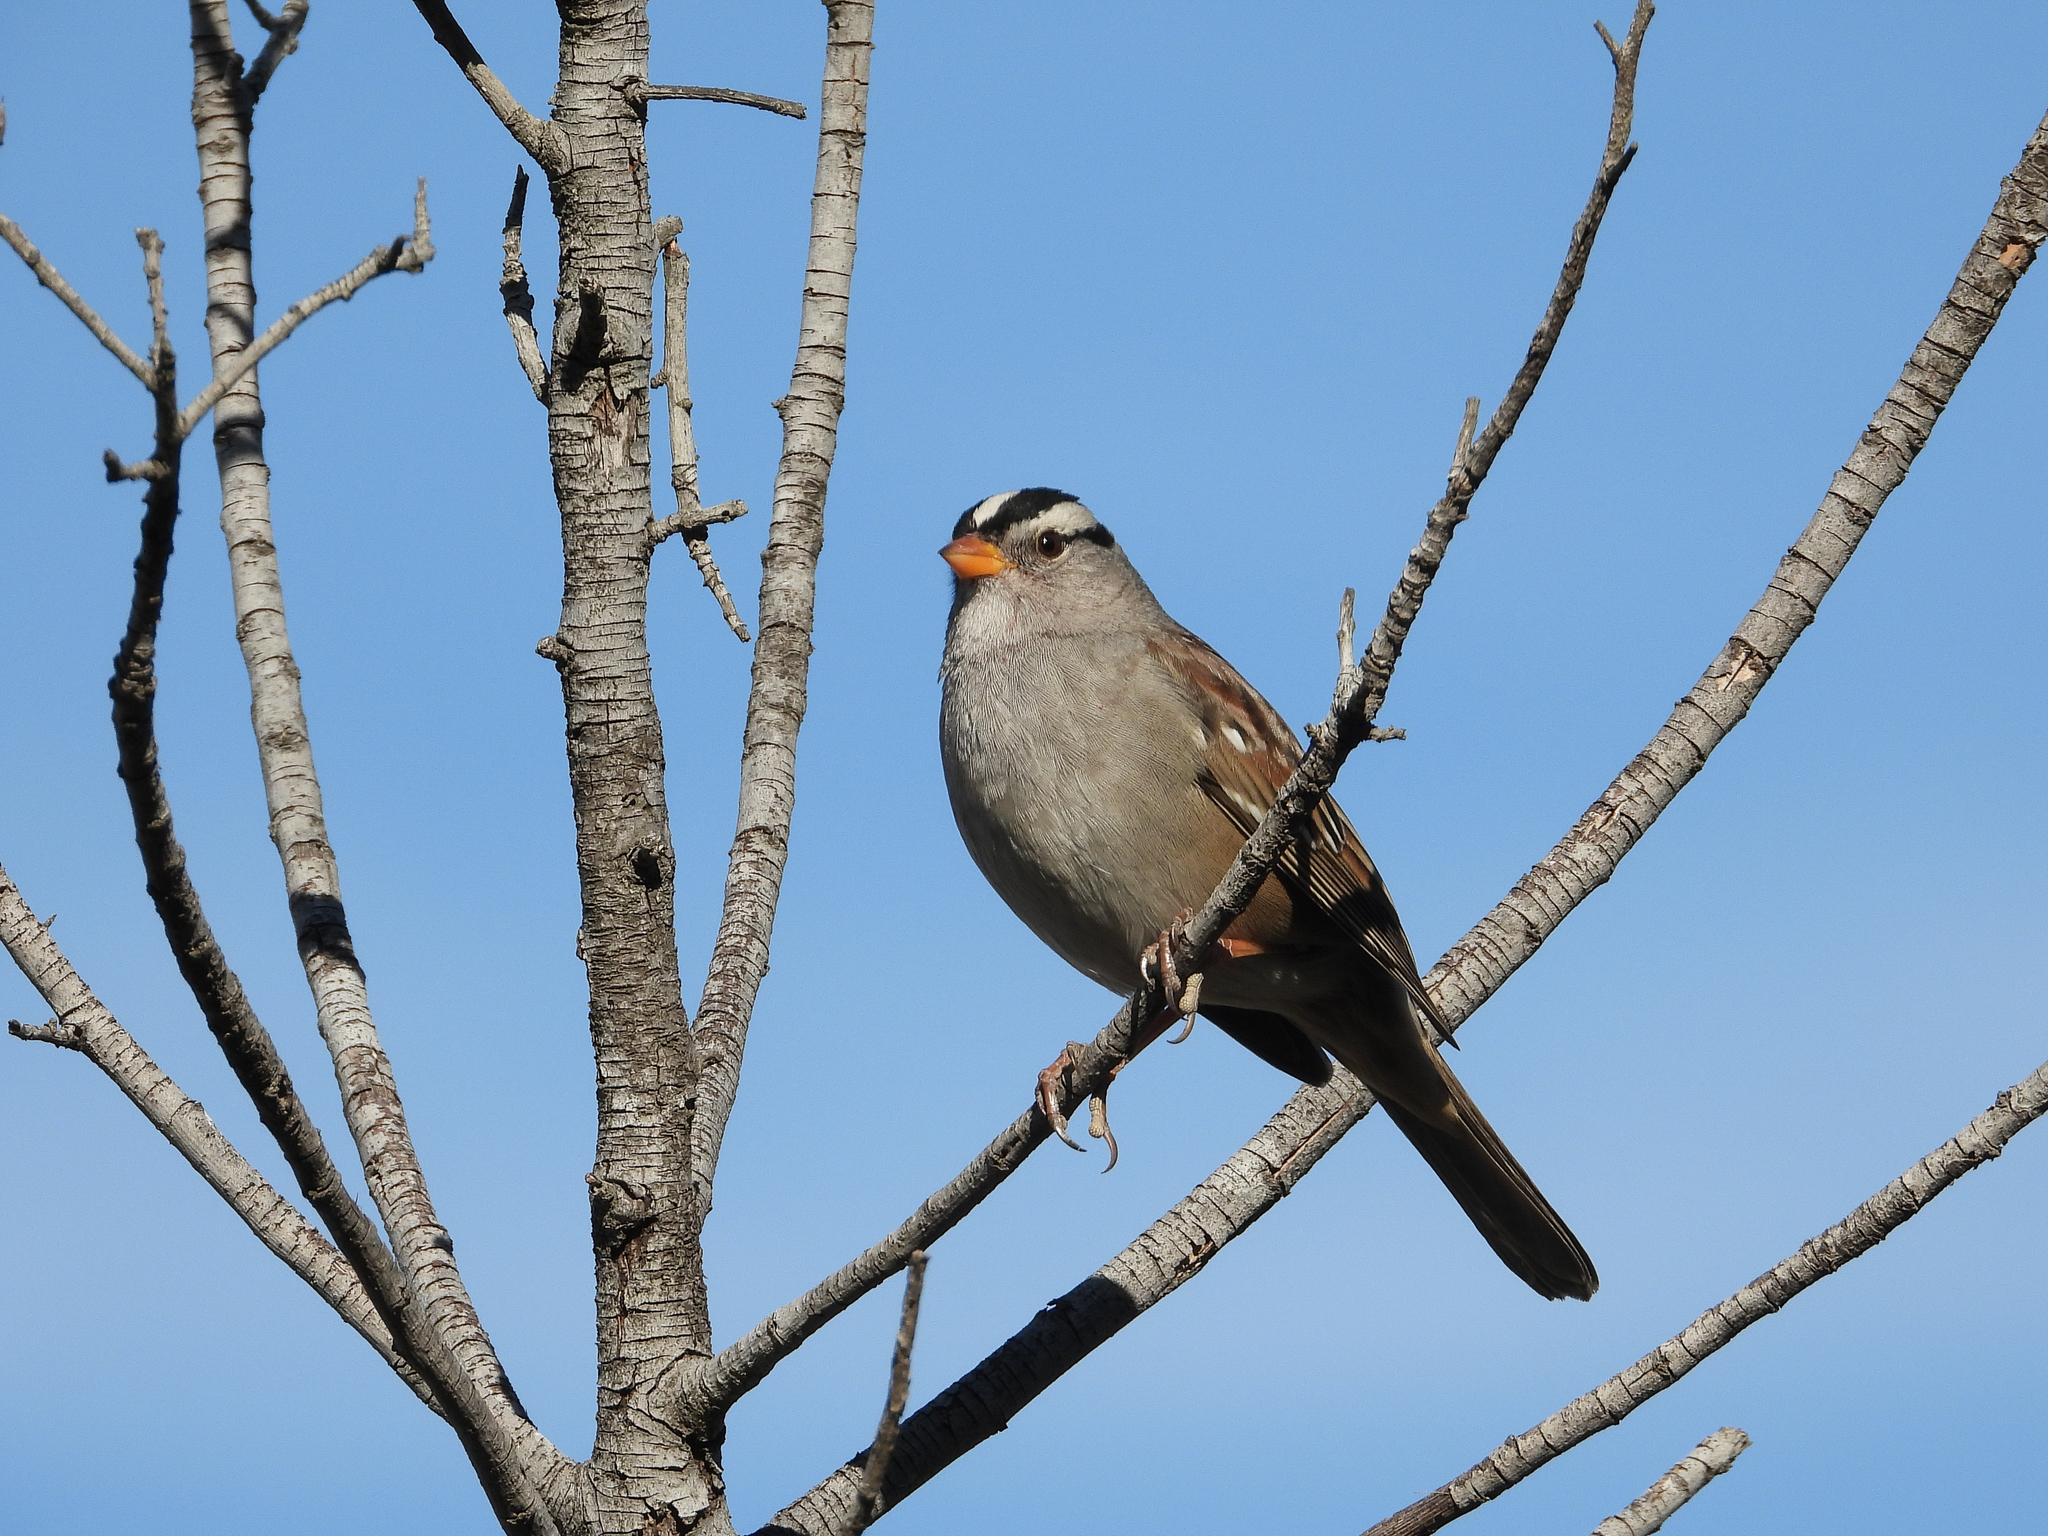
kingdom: Animalia
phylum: Chordata
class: Aves
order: Passeriformes
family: Passerellidae
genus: Zonotrichia
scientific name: Zonotrichia leucophrys
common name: White-crowned sparrow
